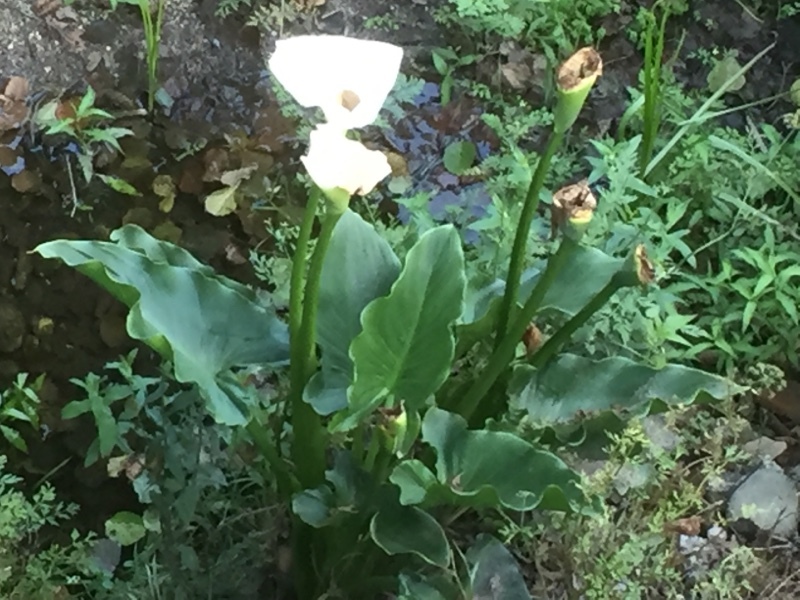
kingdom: Plantae
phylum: Tracheophyta
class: Liliopsida
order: Alismatales
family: Araceae
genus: Zantedeschia
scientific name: Zantedeschia aethiopica
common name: Altar-lily
